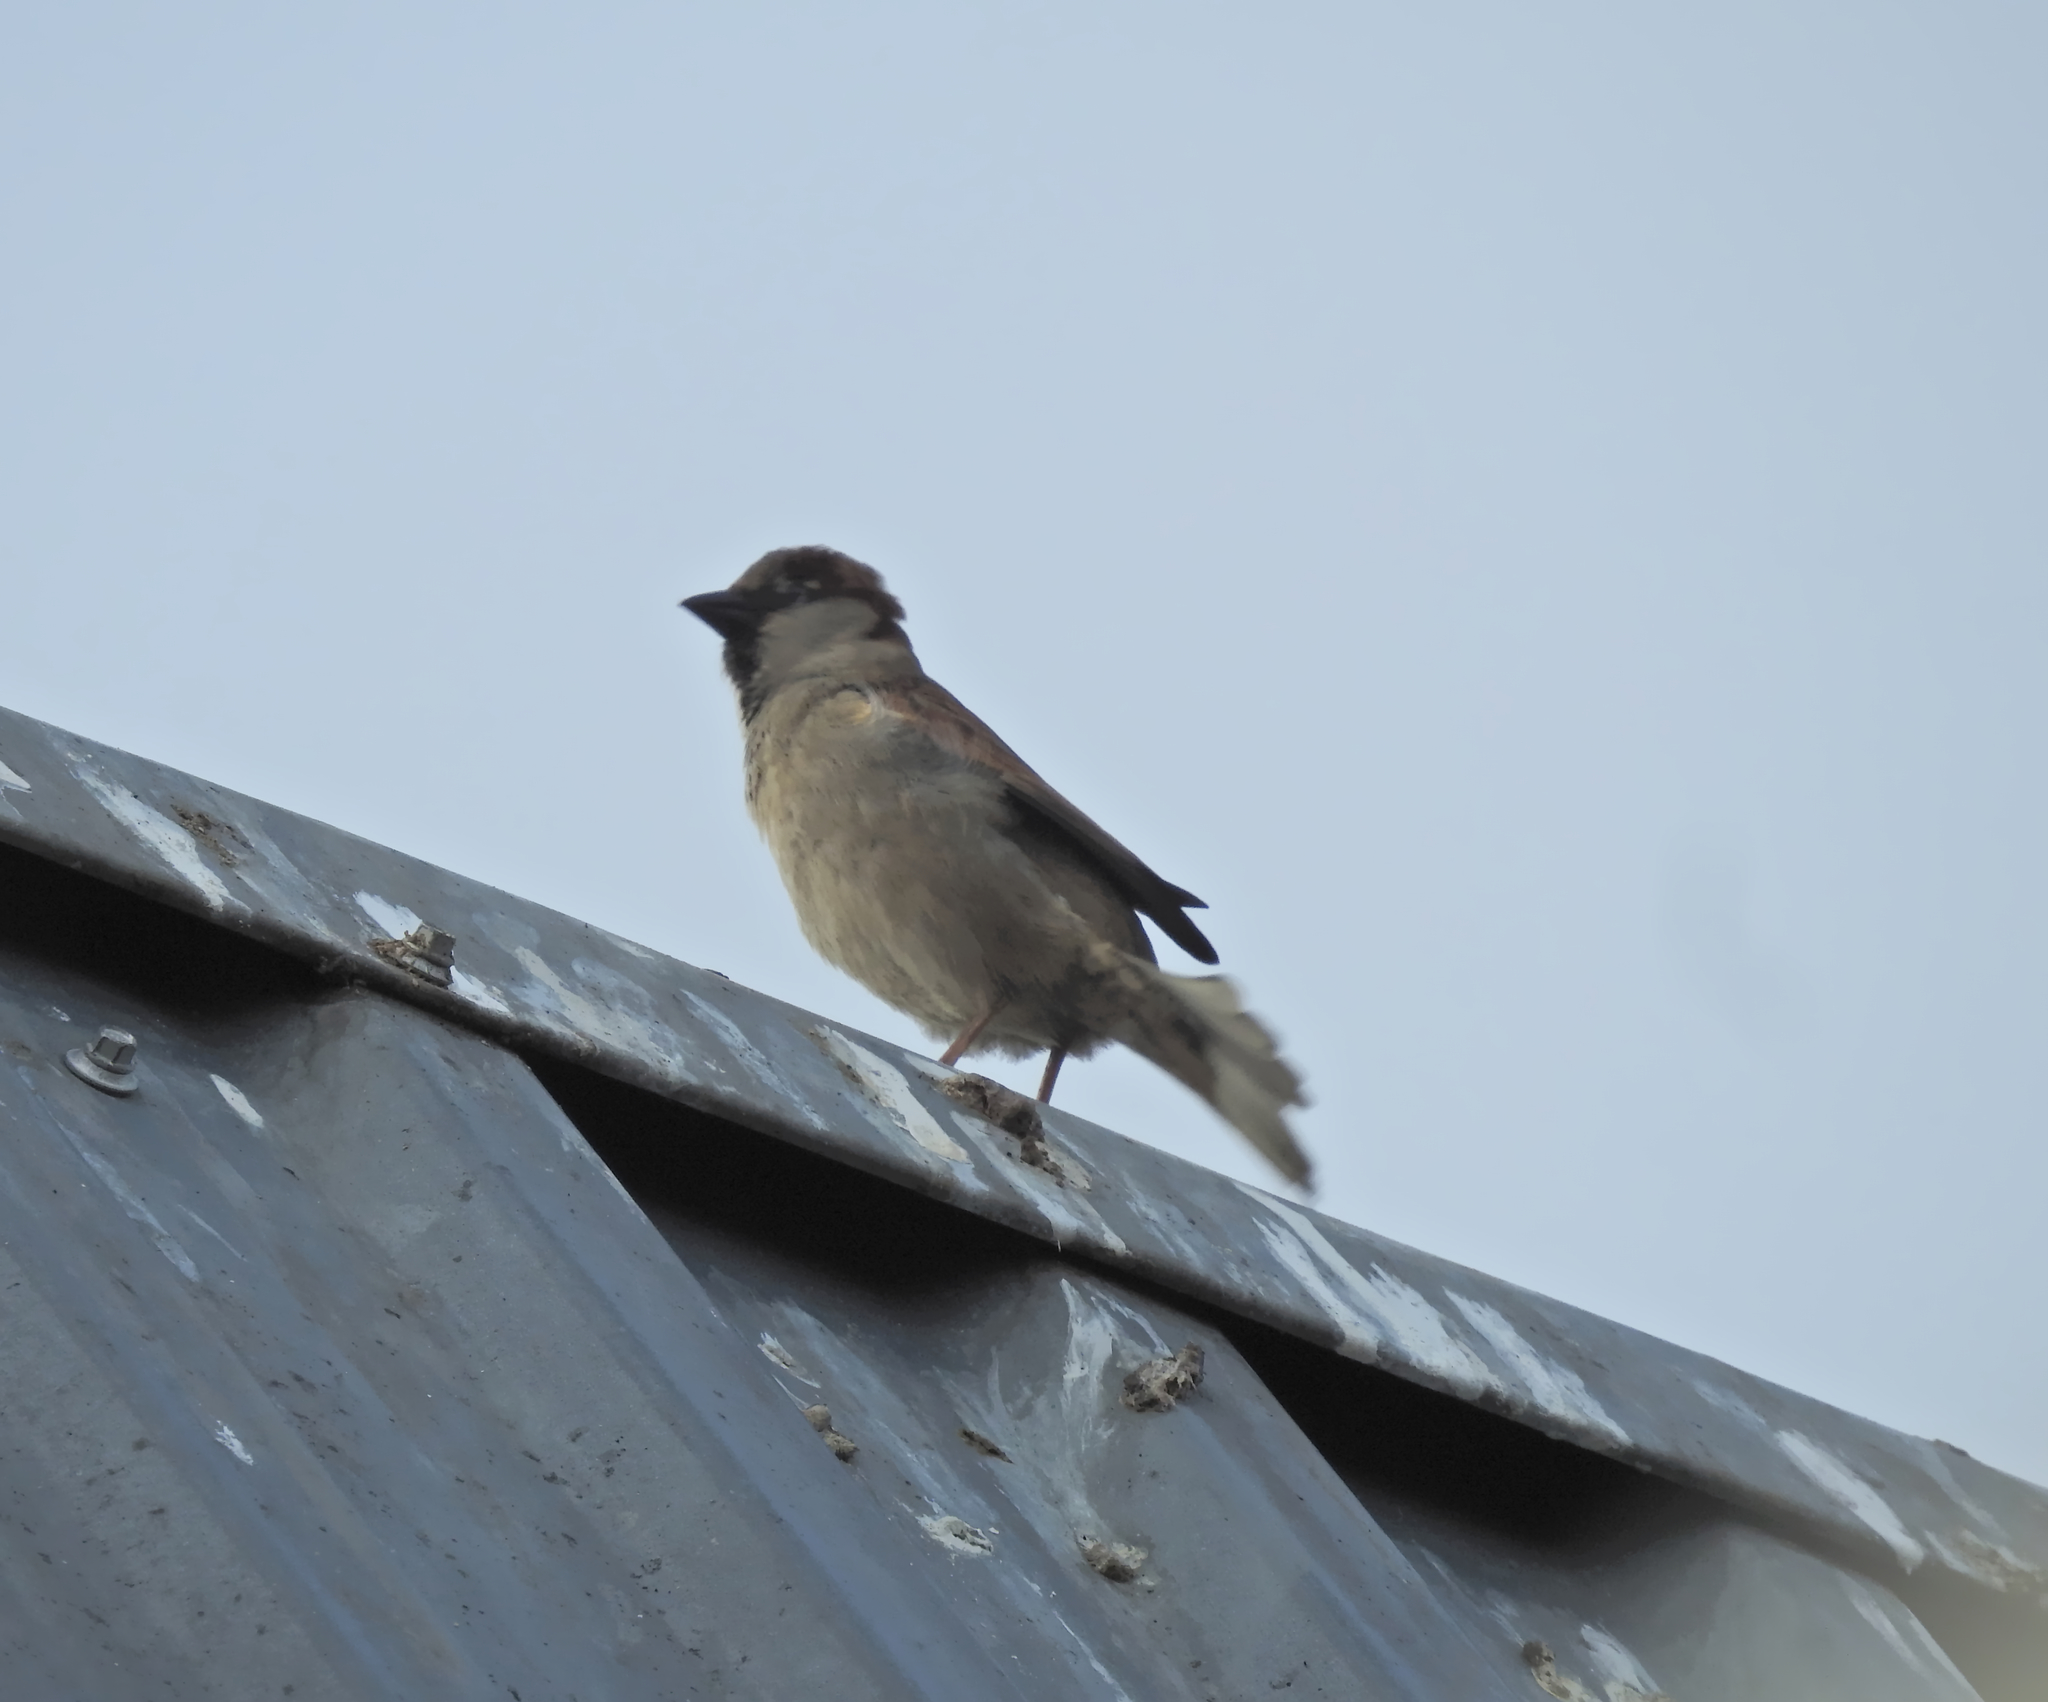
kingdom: Animalia
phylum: Chordata
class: Aves
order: Passeriformes
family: Passeridae
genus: Passer
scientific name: Passer domesticus
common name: House sparrow
